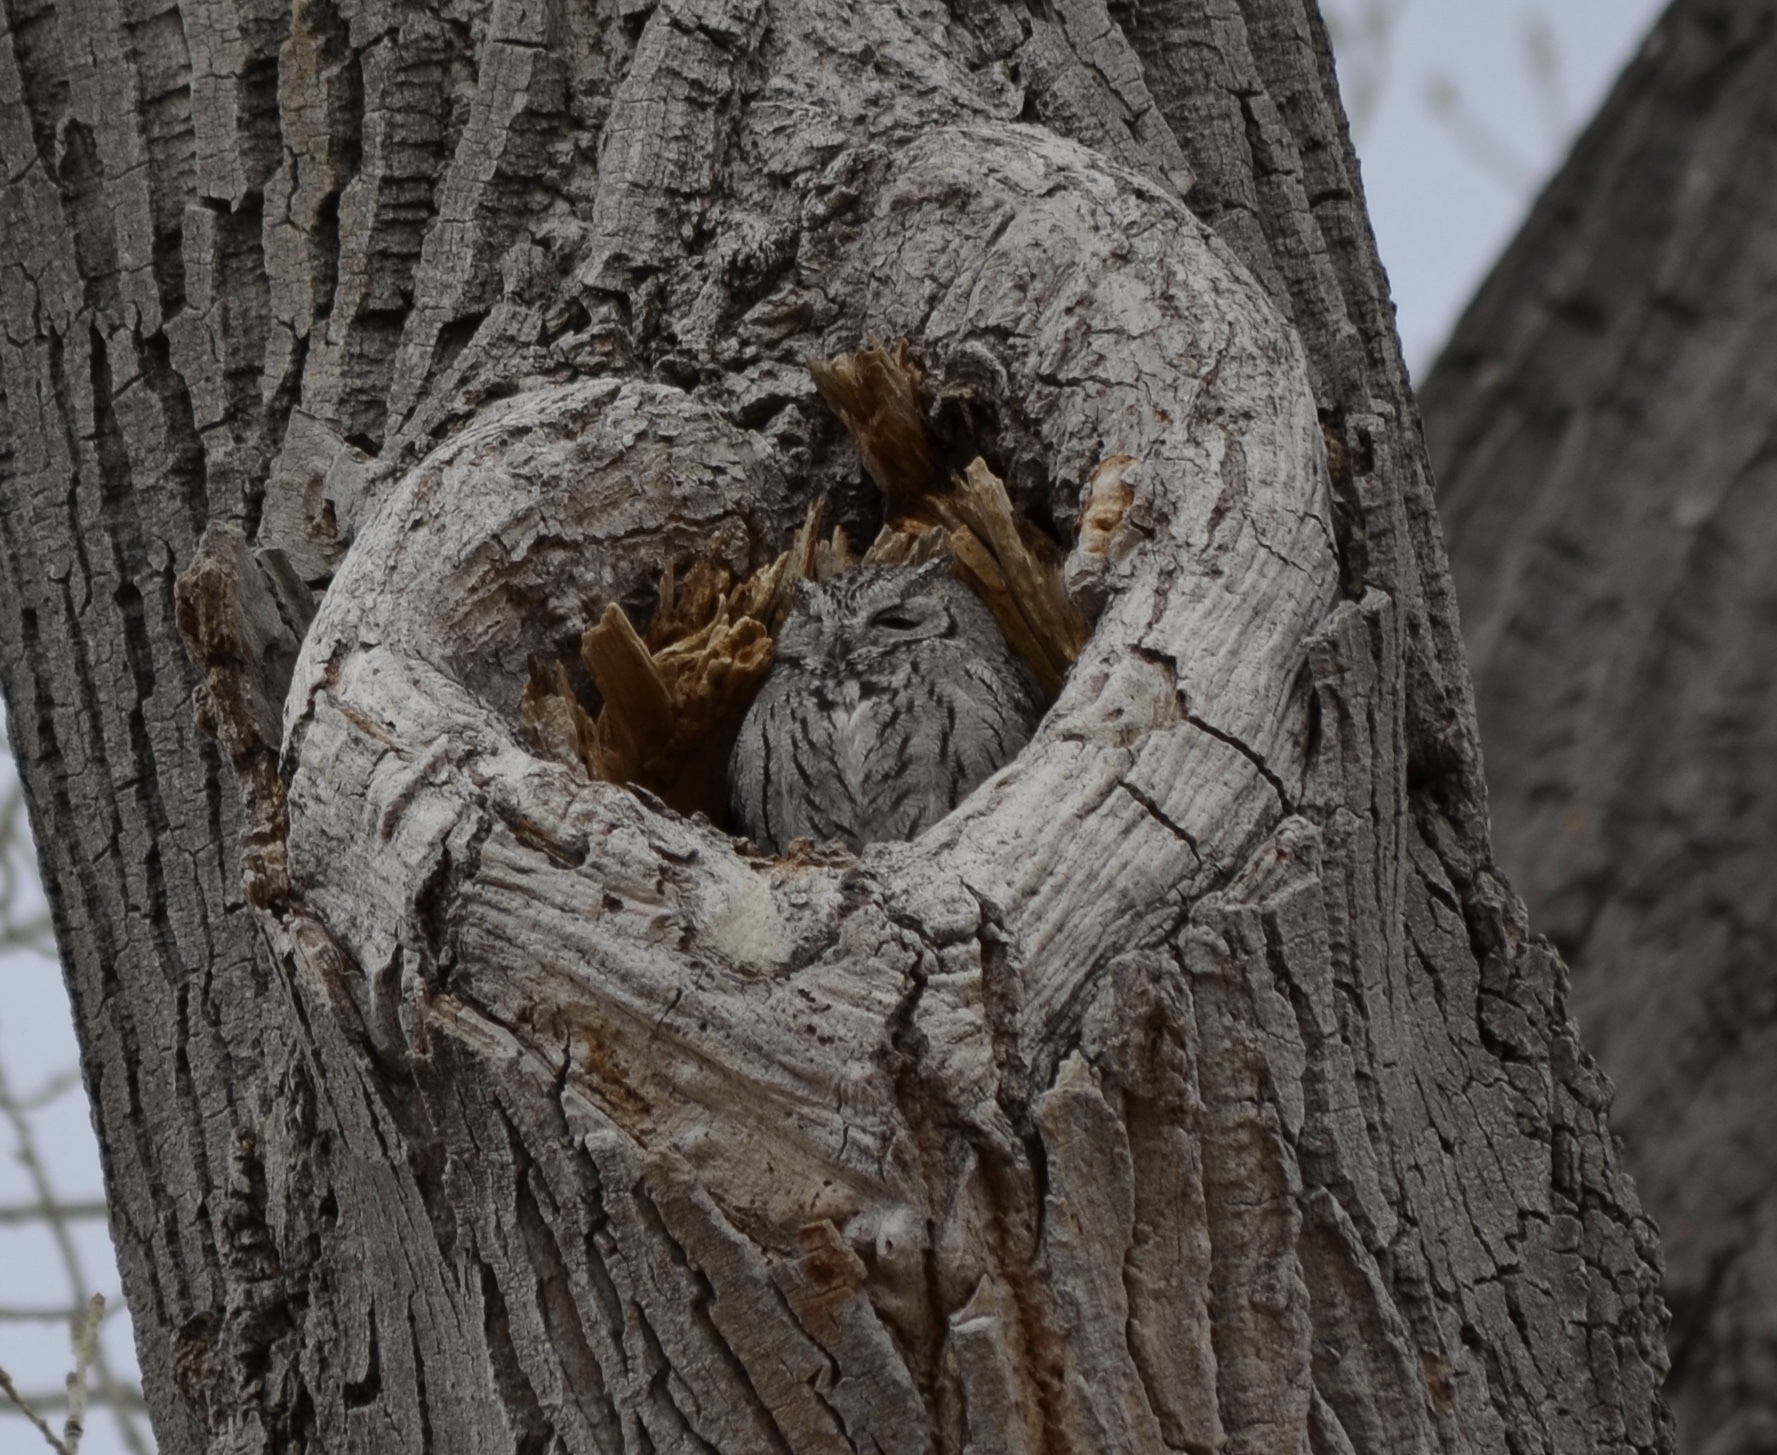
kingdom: Animalia
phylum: Chordata
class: Aves
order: Strigiformes
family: Strigidae
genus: Megascops
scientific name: Megascops kennicottii
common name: Western screech-owl
